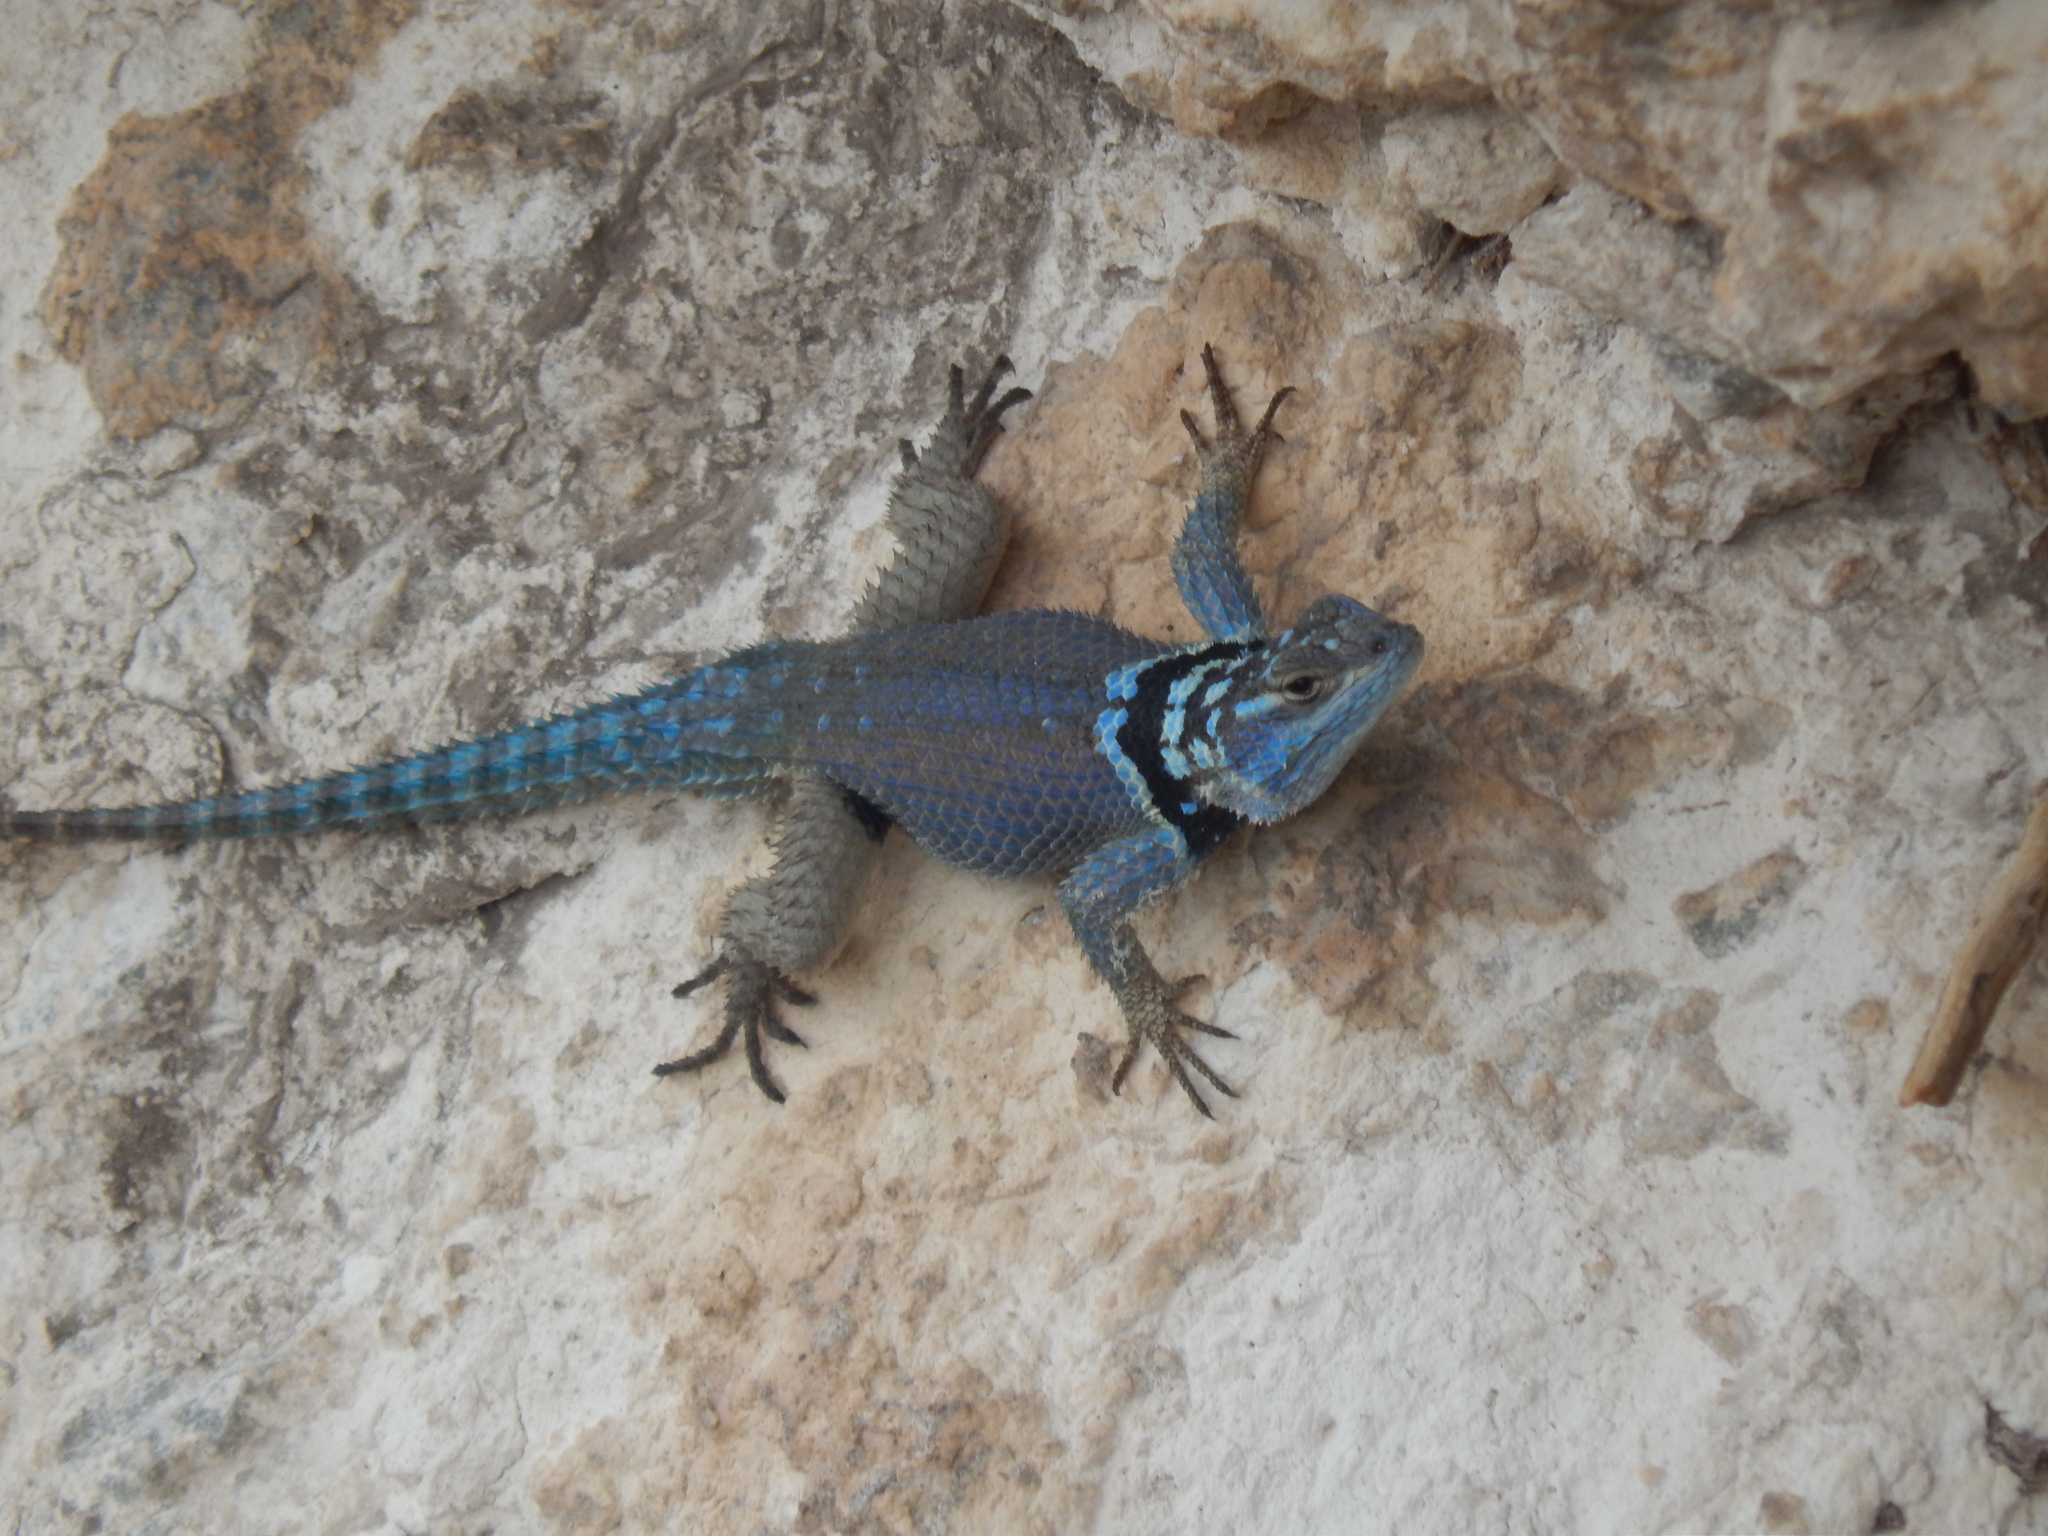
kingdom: Animalia
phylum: Chordata
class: Squamata
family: Phrynosomatidae
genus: Sceloporus
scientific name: Sceloporus minor
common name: Minor lizard
